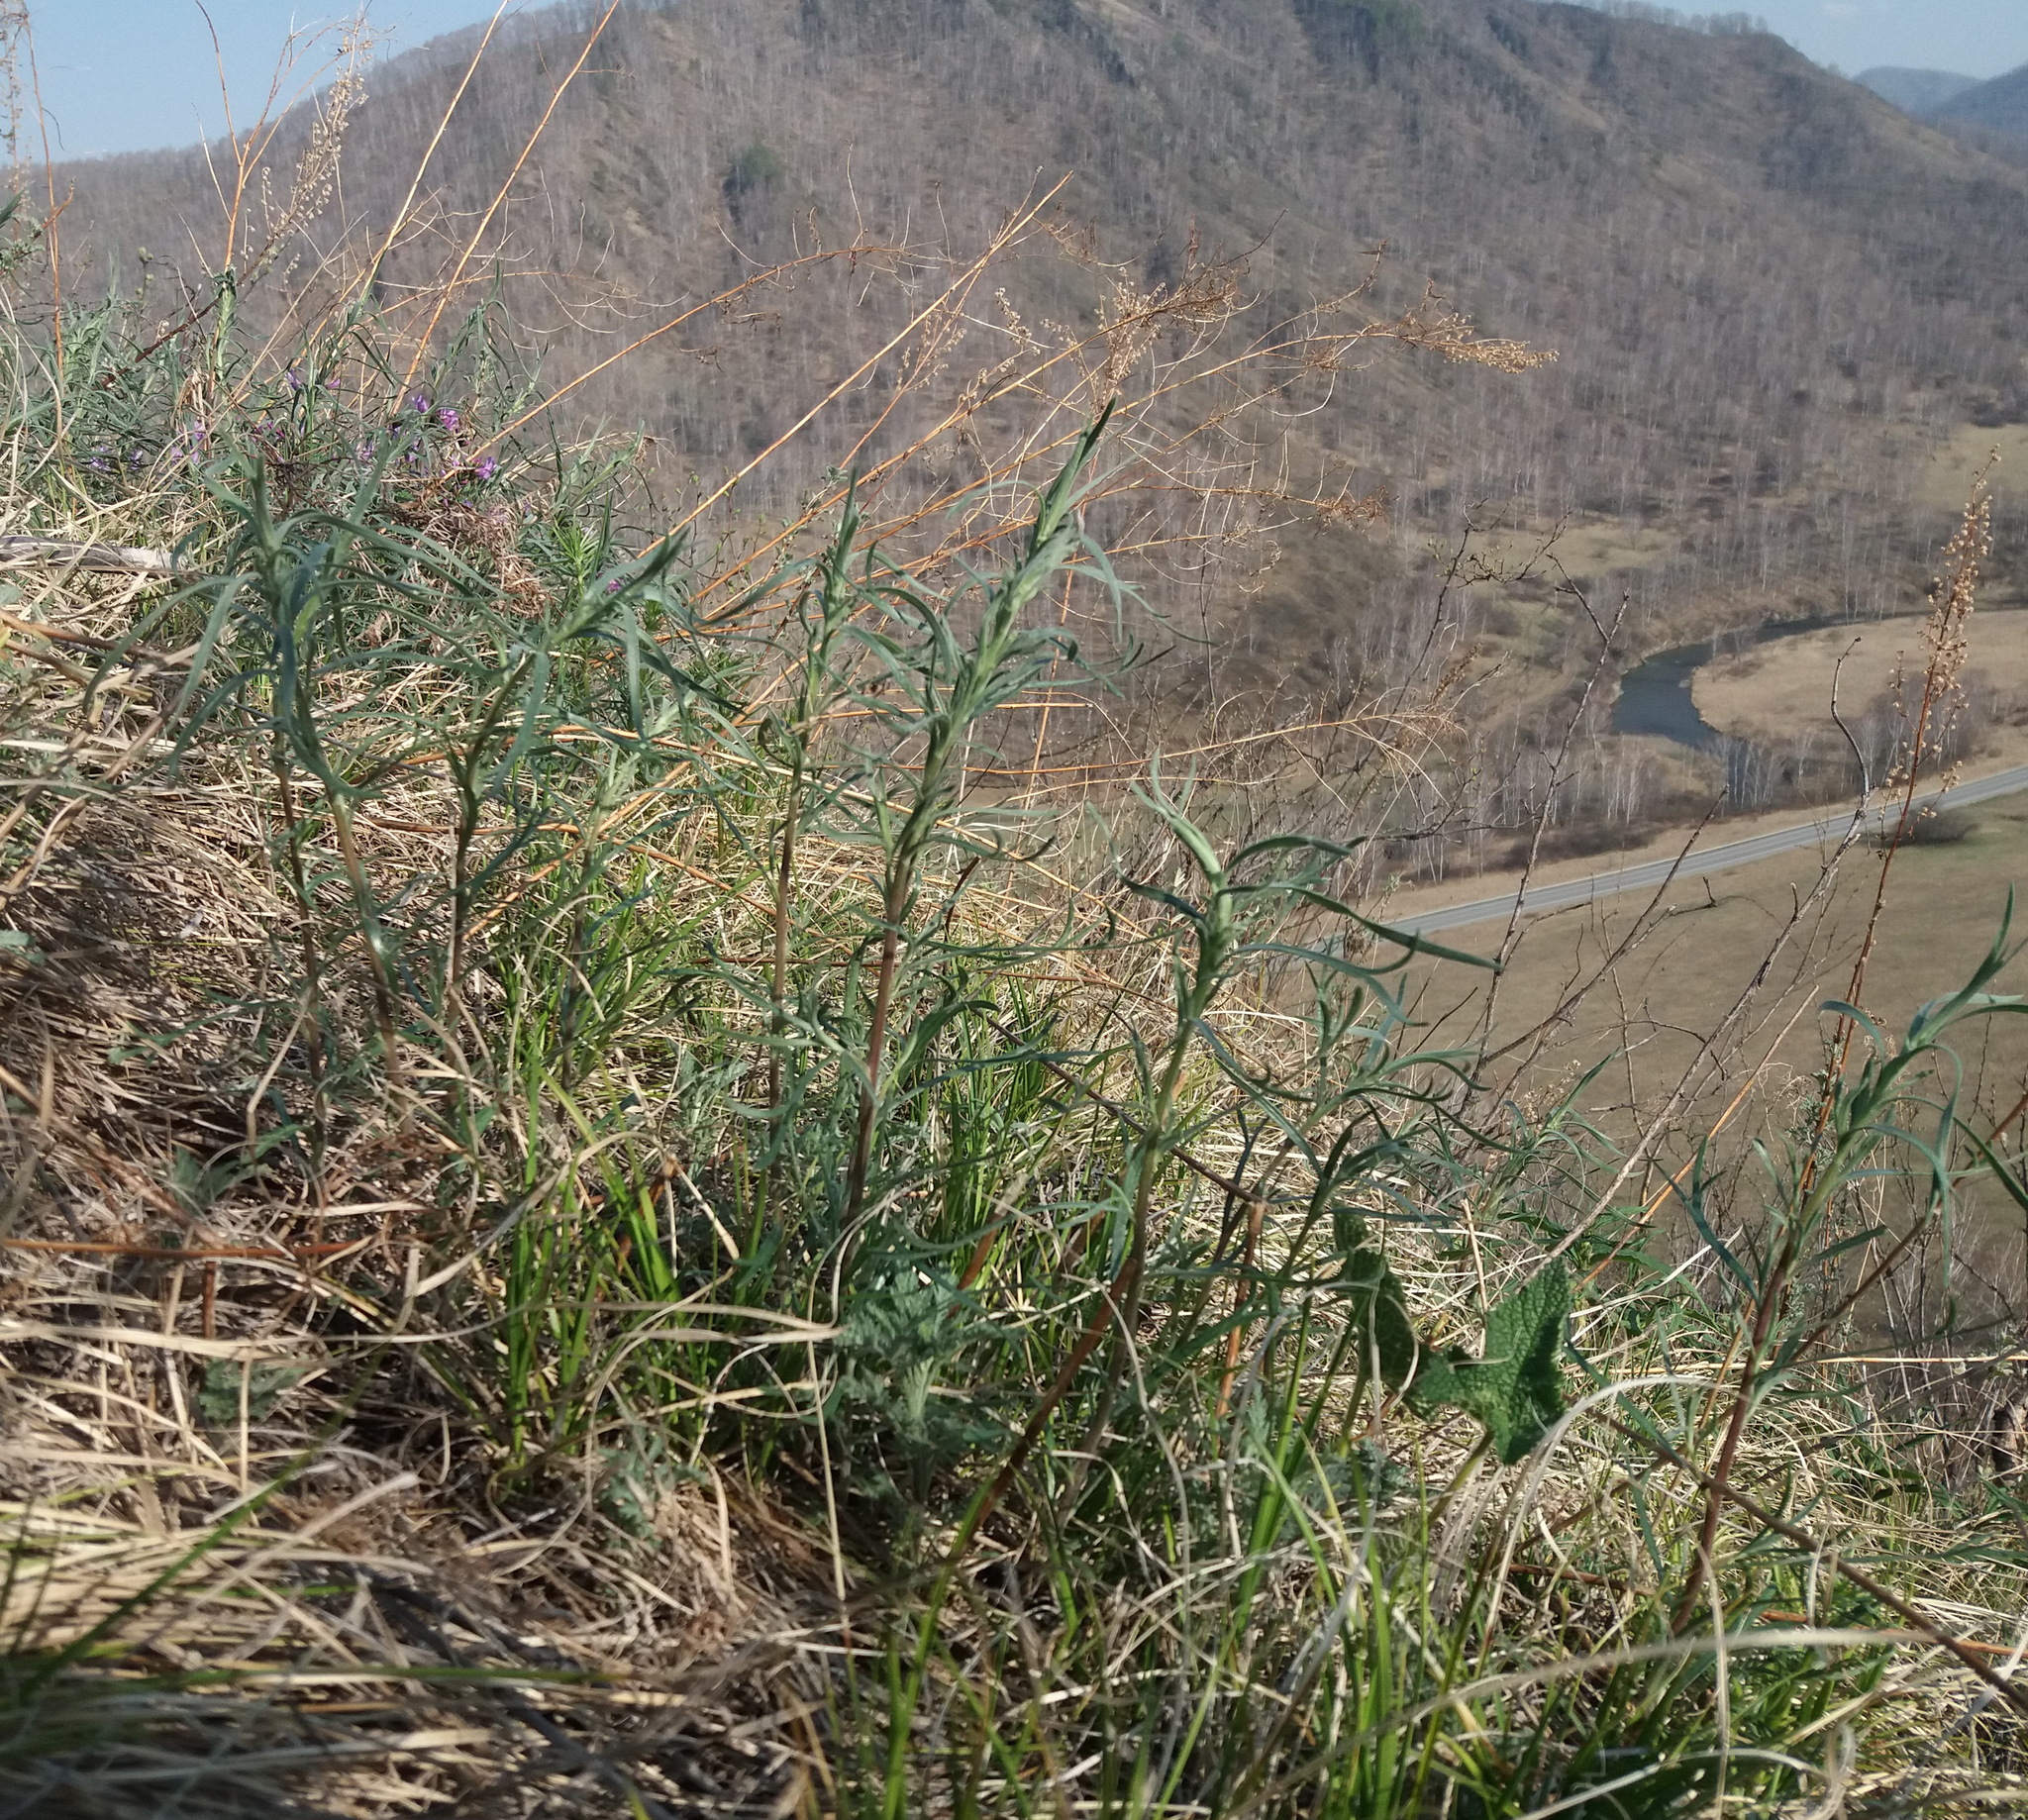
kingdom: Plantae
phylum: Tracheophyta
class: Magnoliopsida
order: Asterales
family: Asteraceae
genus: Artemisia
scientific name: Artemisia dracunculus
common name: Tarragon
